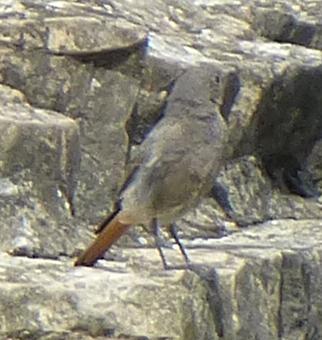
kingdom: Animalia
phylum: Chordata
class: Aves
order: Passeriformes
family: Muscicapidae
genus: Phoenicurus
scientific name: Phoenicurus ochruros
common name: Black redstart
